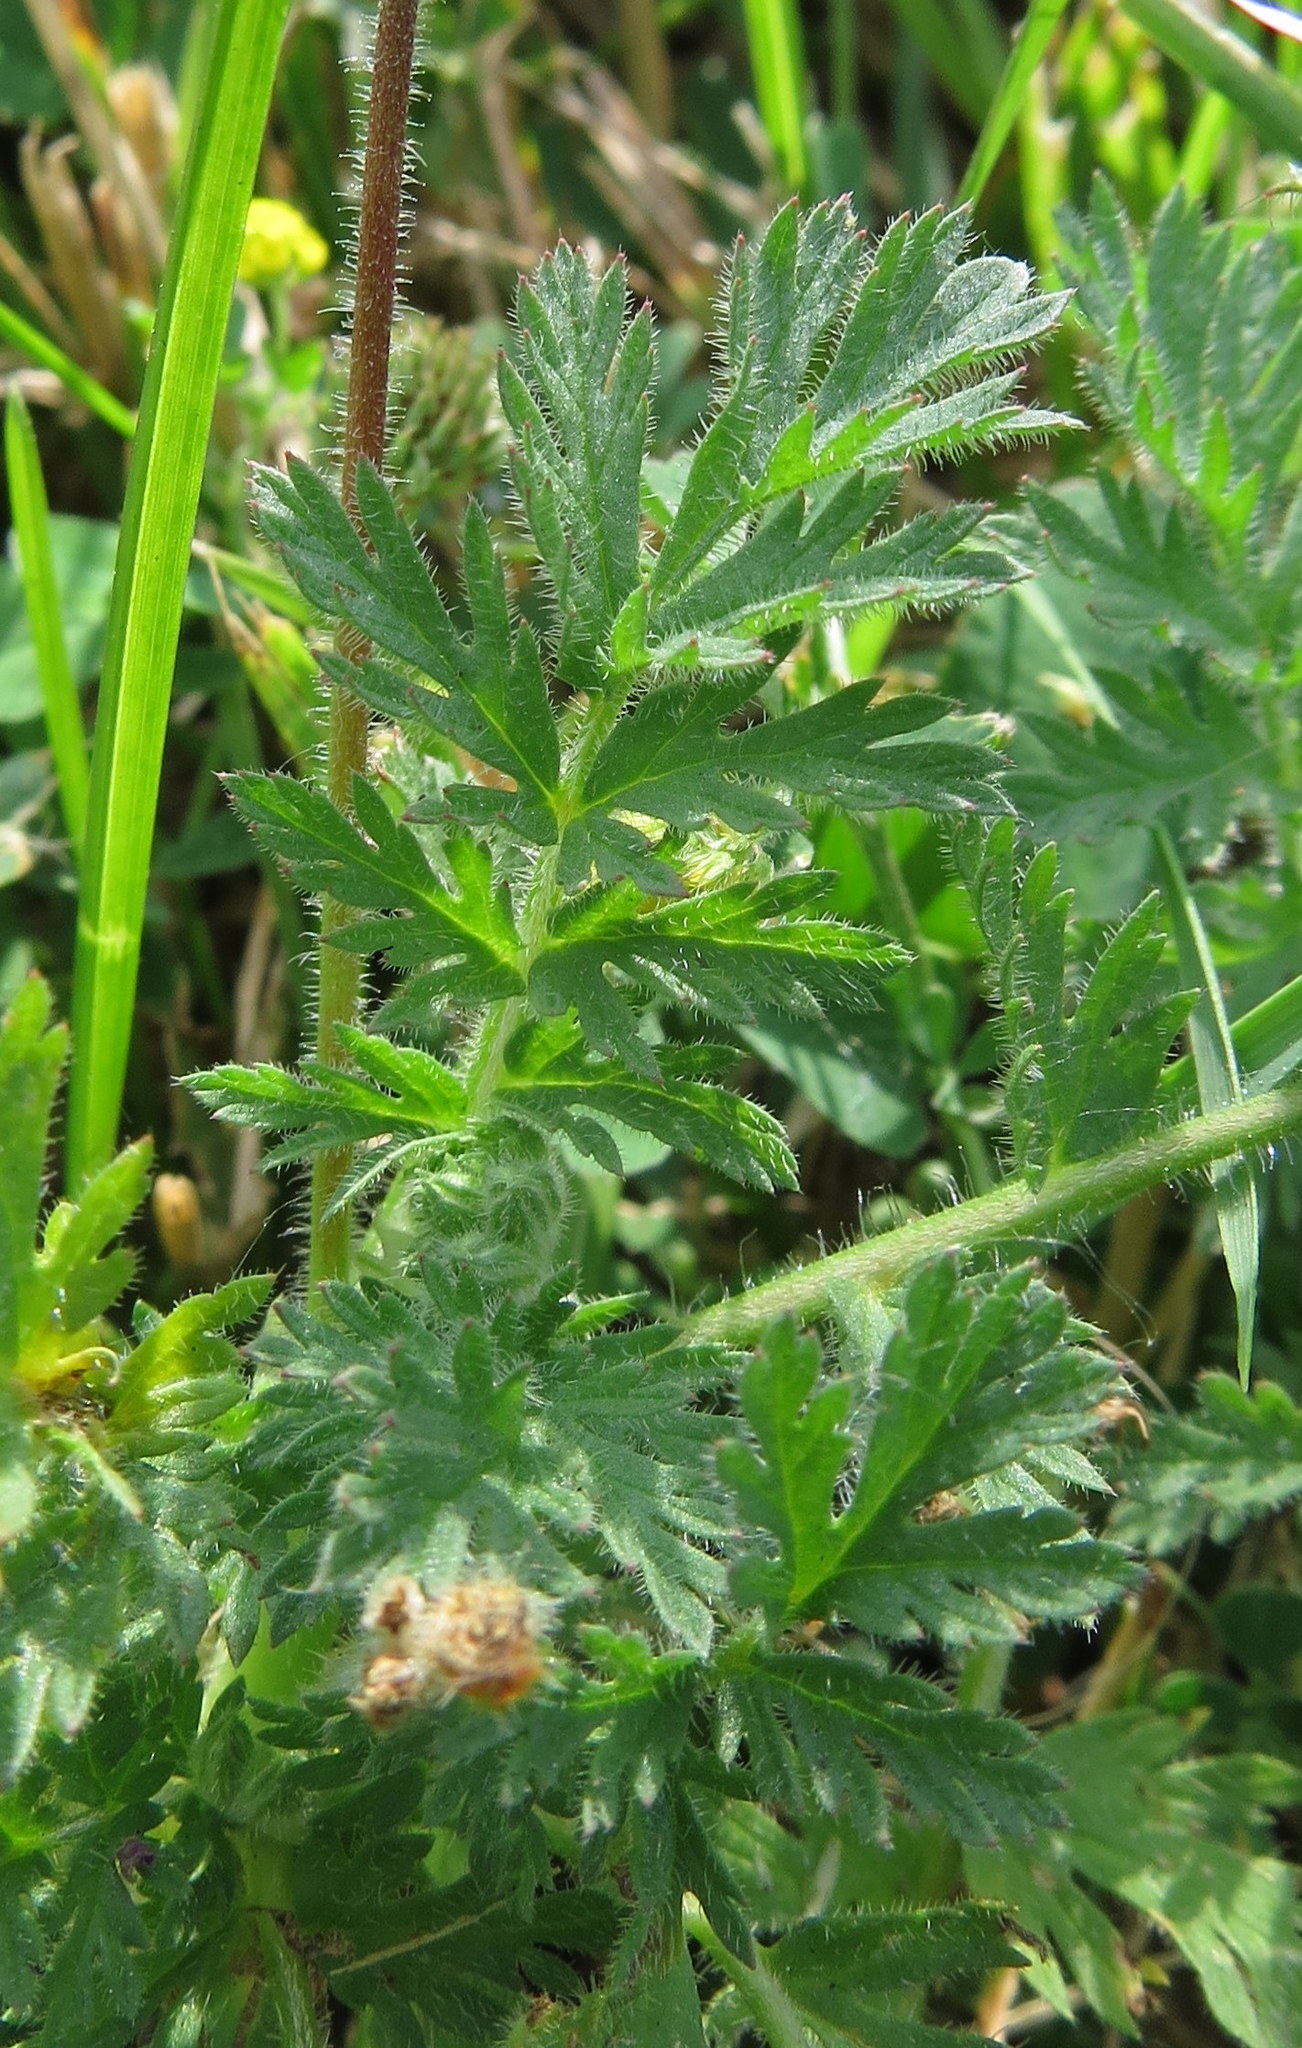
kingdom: Plantae
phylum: Tracheophyta
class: Magnoliopsida
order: Geraniales
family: Geraniaceae
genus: Erodium
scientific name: Erodium cicutarium
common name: Common stork's-bill
